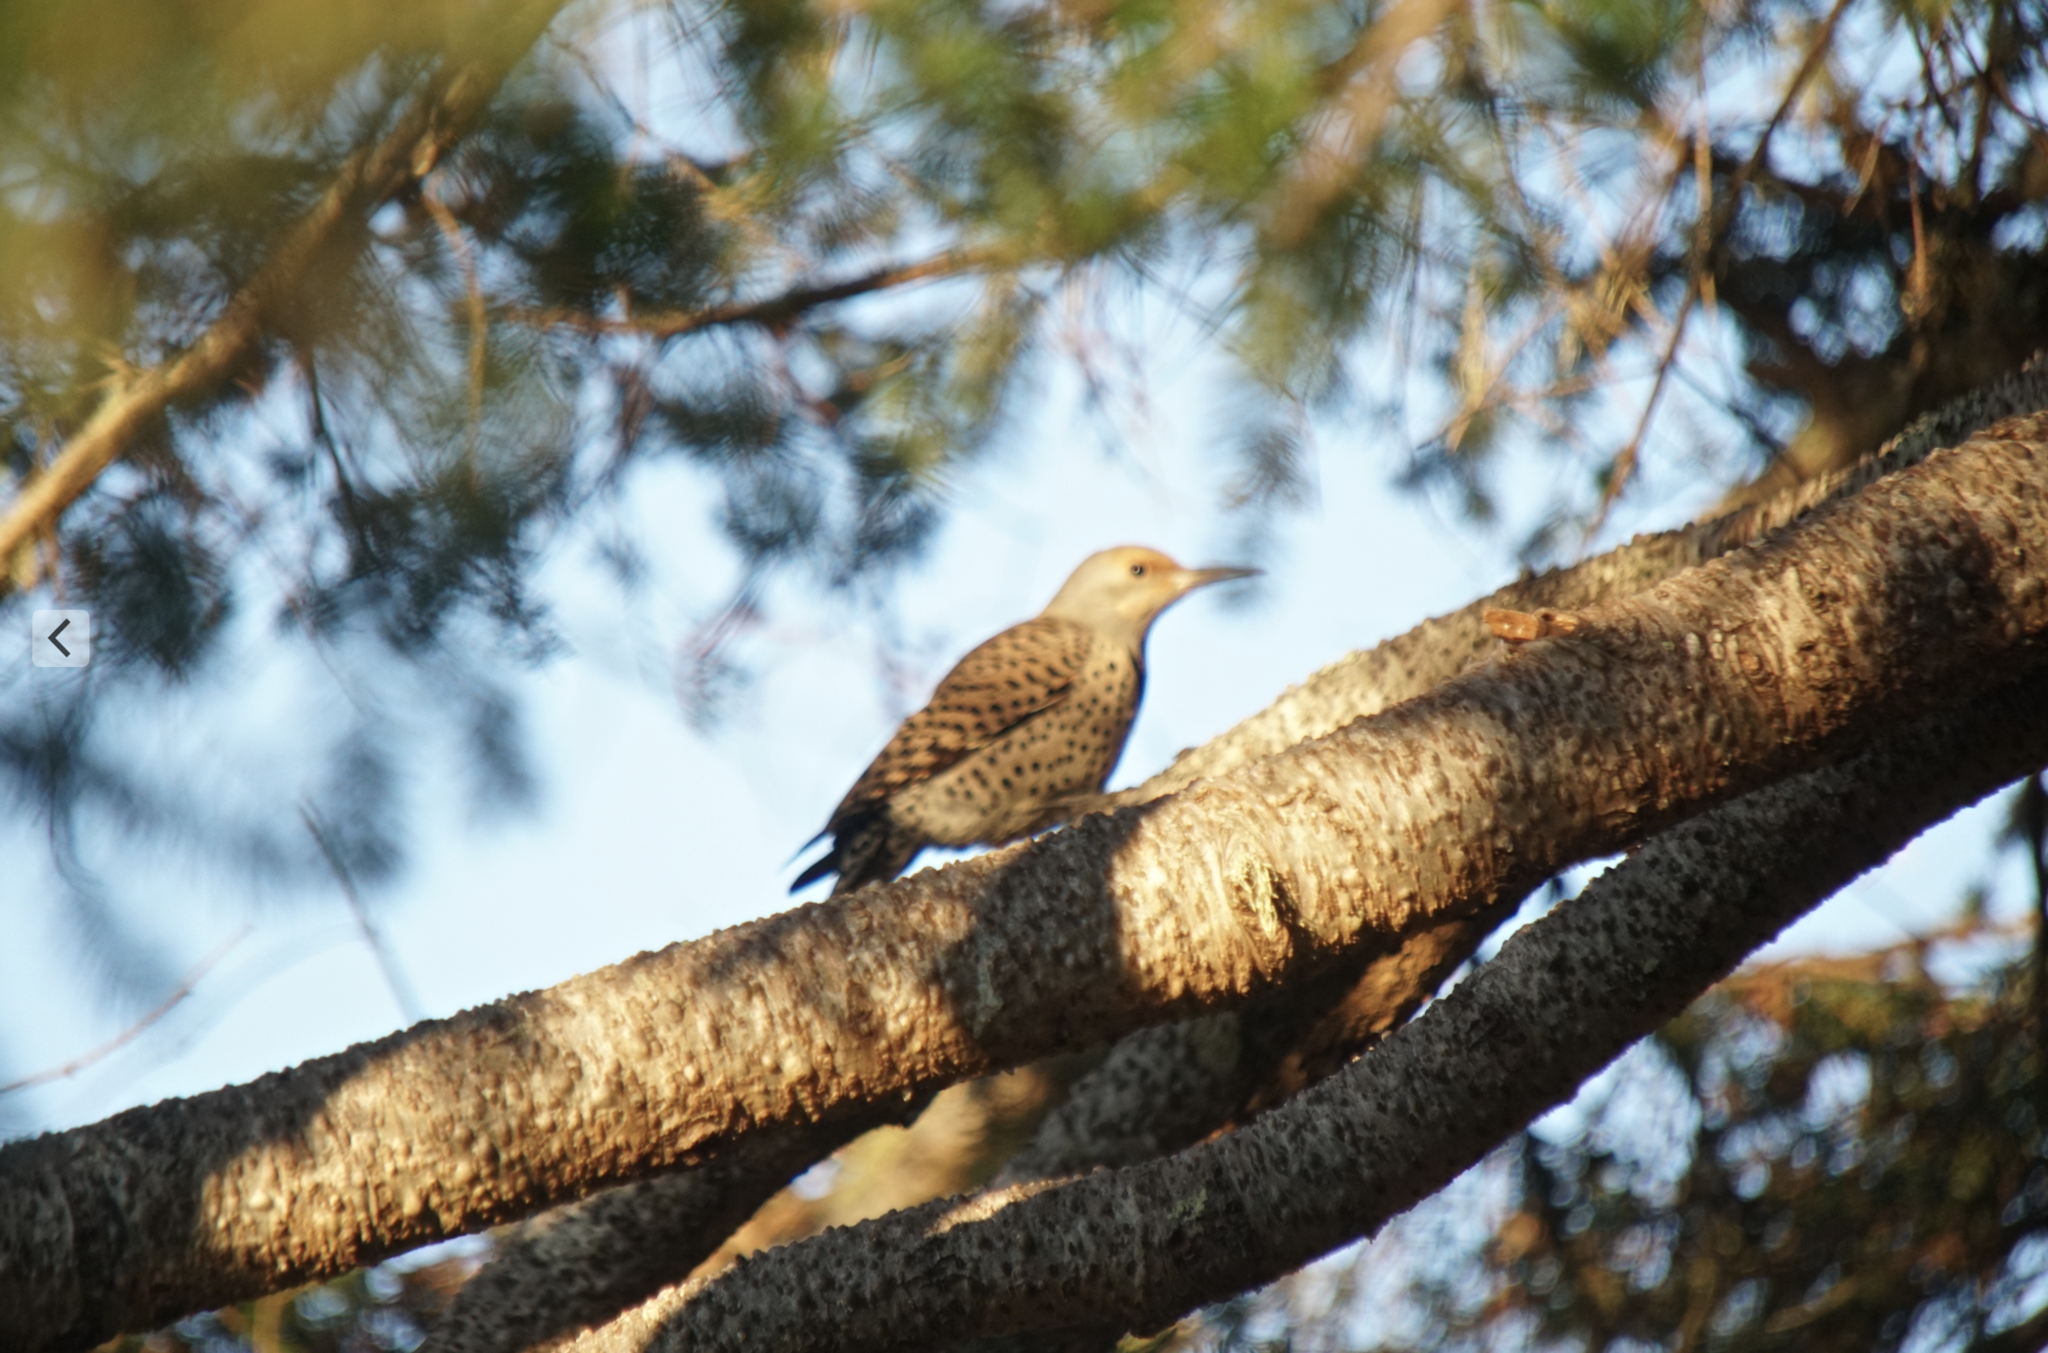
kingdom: Animalia
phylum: Chordata
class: Aves
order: Piciformes
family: Picidae
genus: Colaptes
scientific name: Colaptes auratus
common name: Northern flicker
